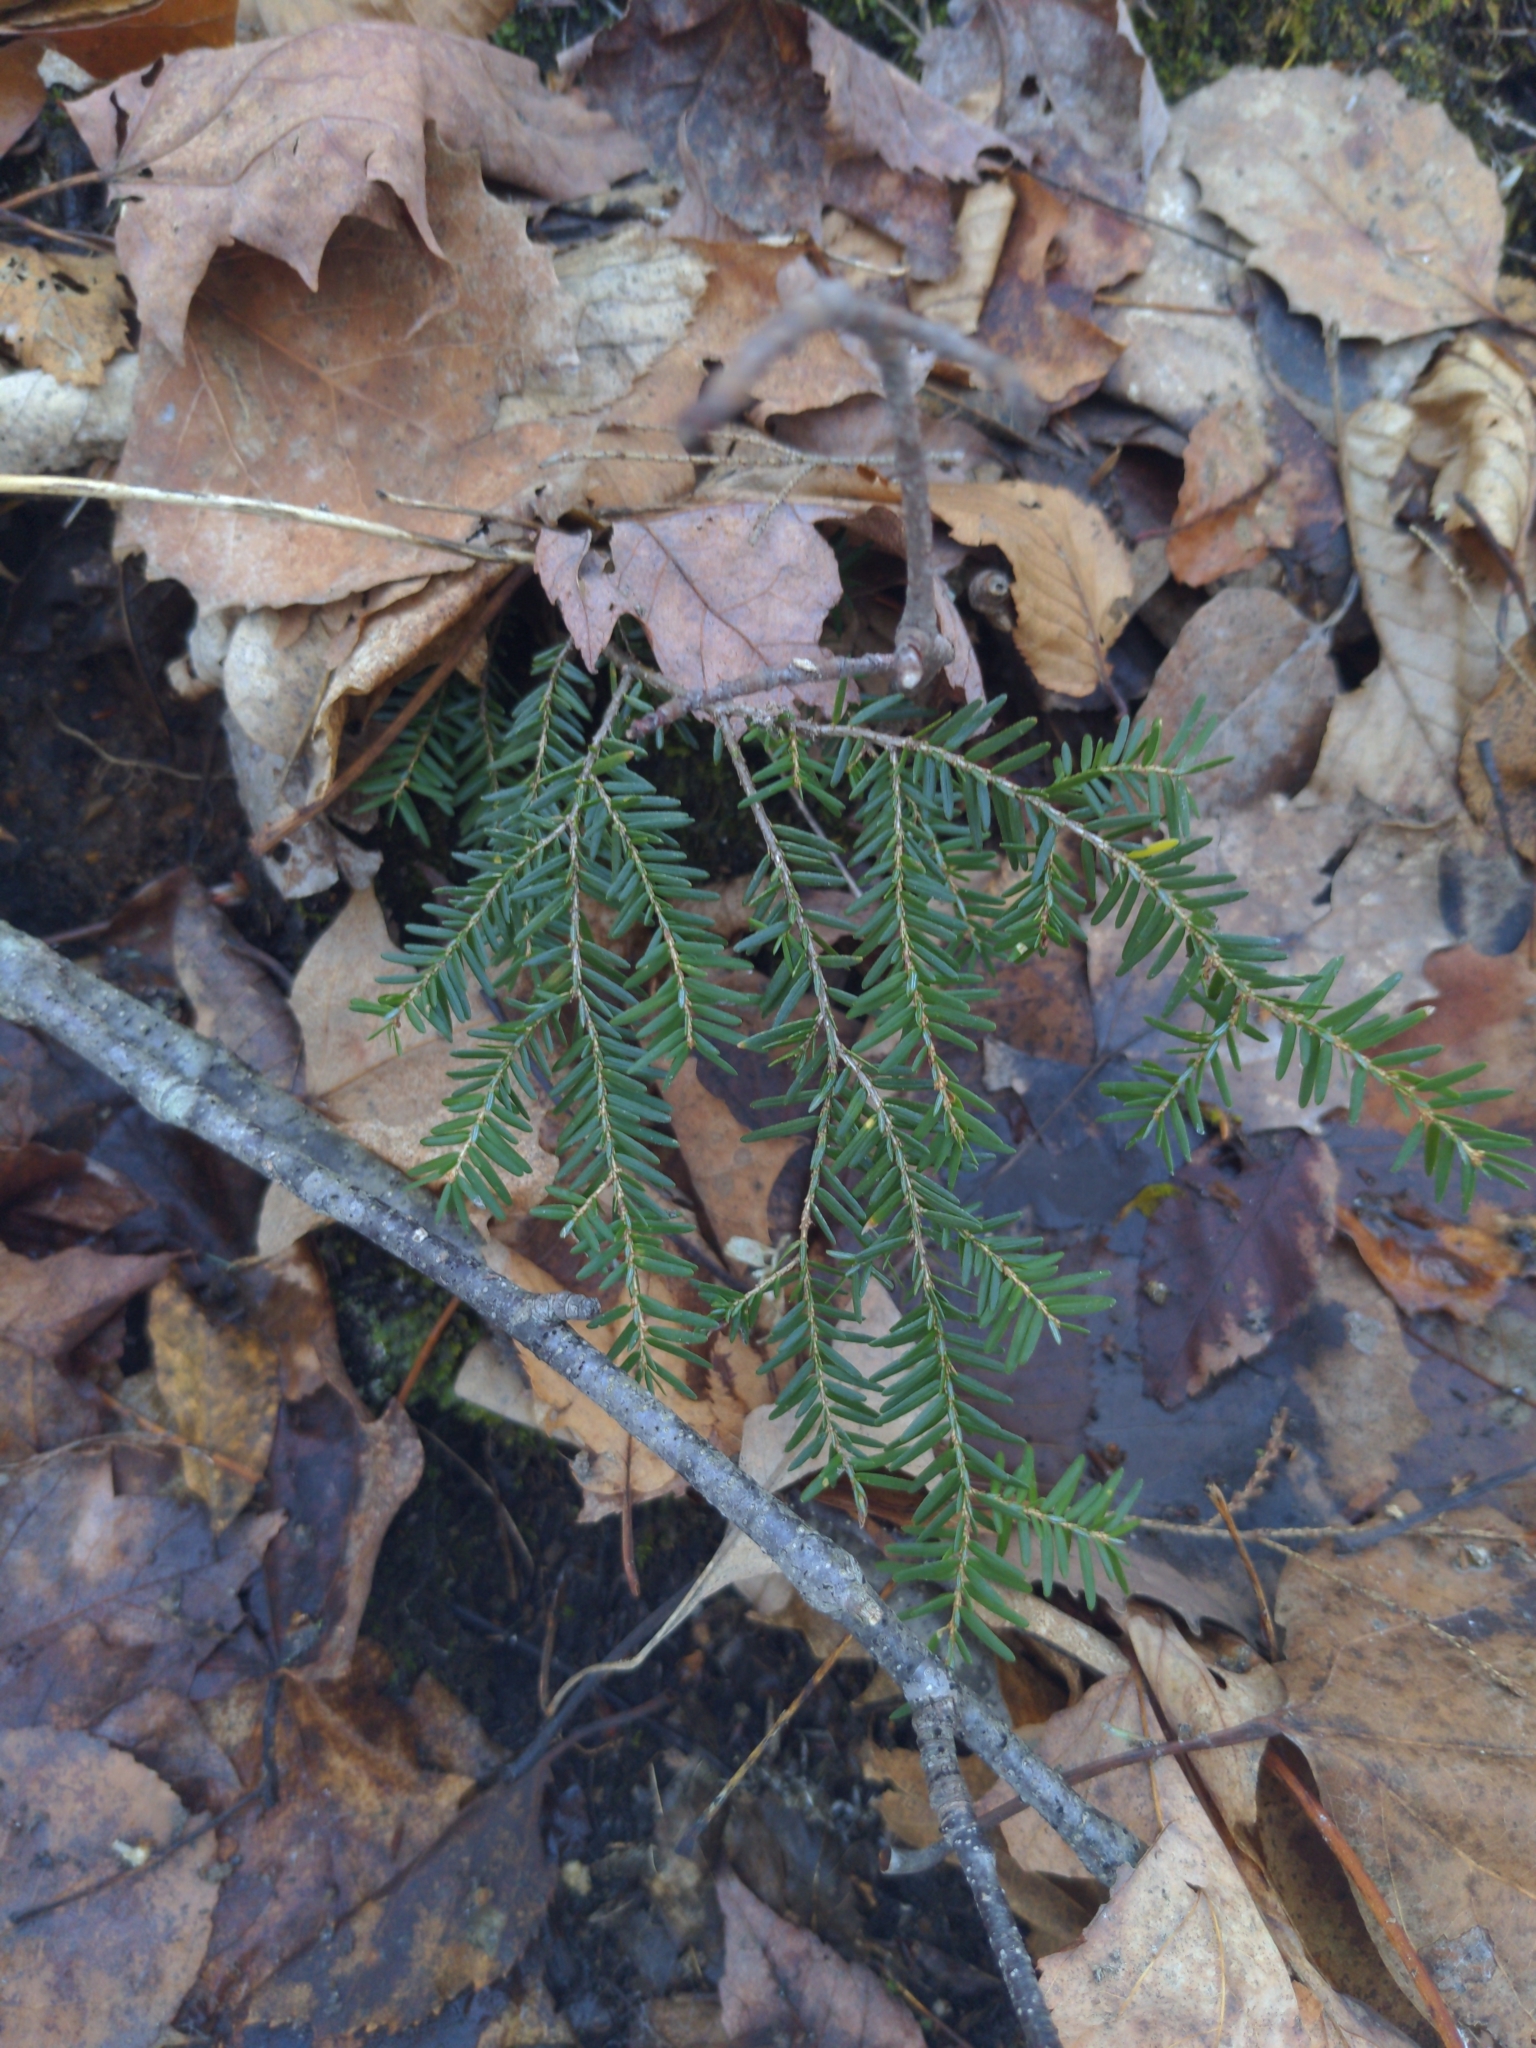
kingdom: Plantae
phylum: Tracheophyta
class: Pinopsida
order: Pinales
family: Pinaceae
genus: Tsuga
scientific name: Tsuga canadensis
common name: Eastern hemlock
